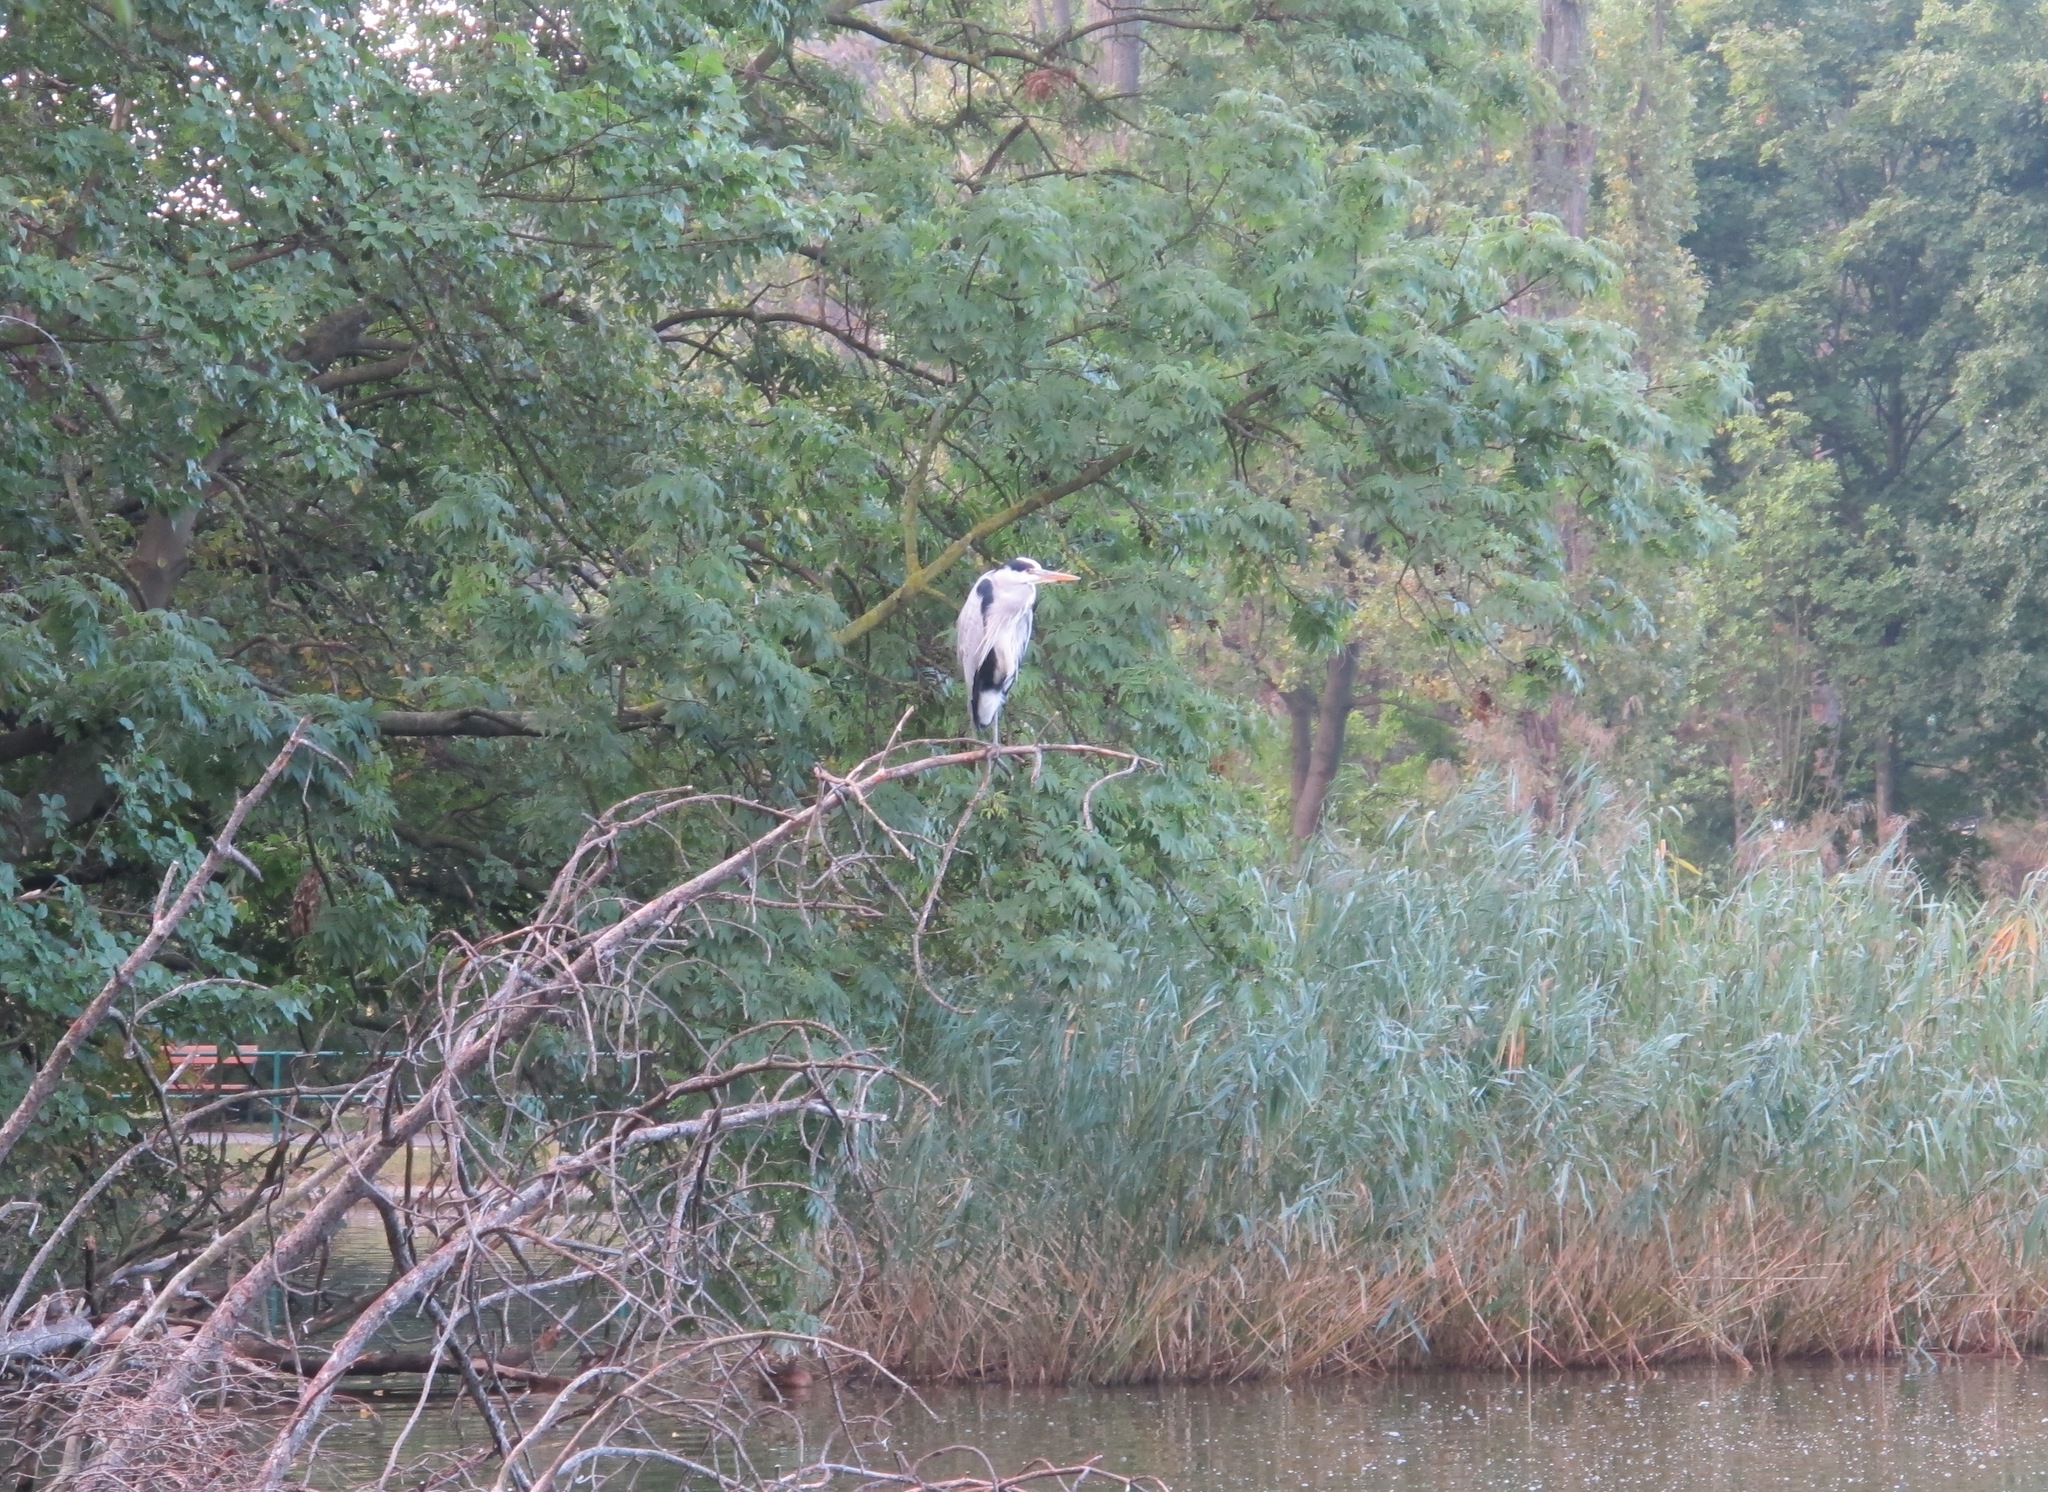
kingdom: Animalia
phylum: Chordata
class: Aves
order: Pelecaniformes
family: Ardeidae
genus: Ardea
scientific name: Ardea cinerea
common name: Grey heron
